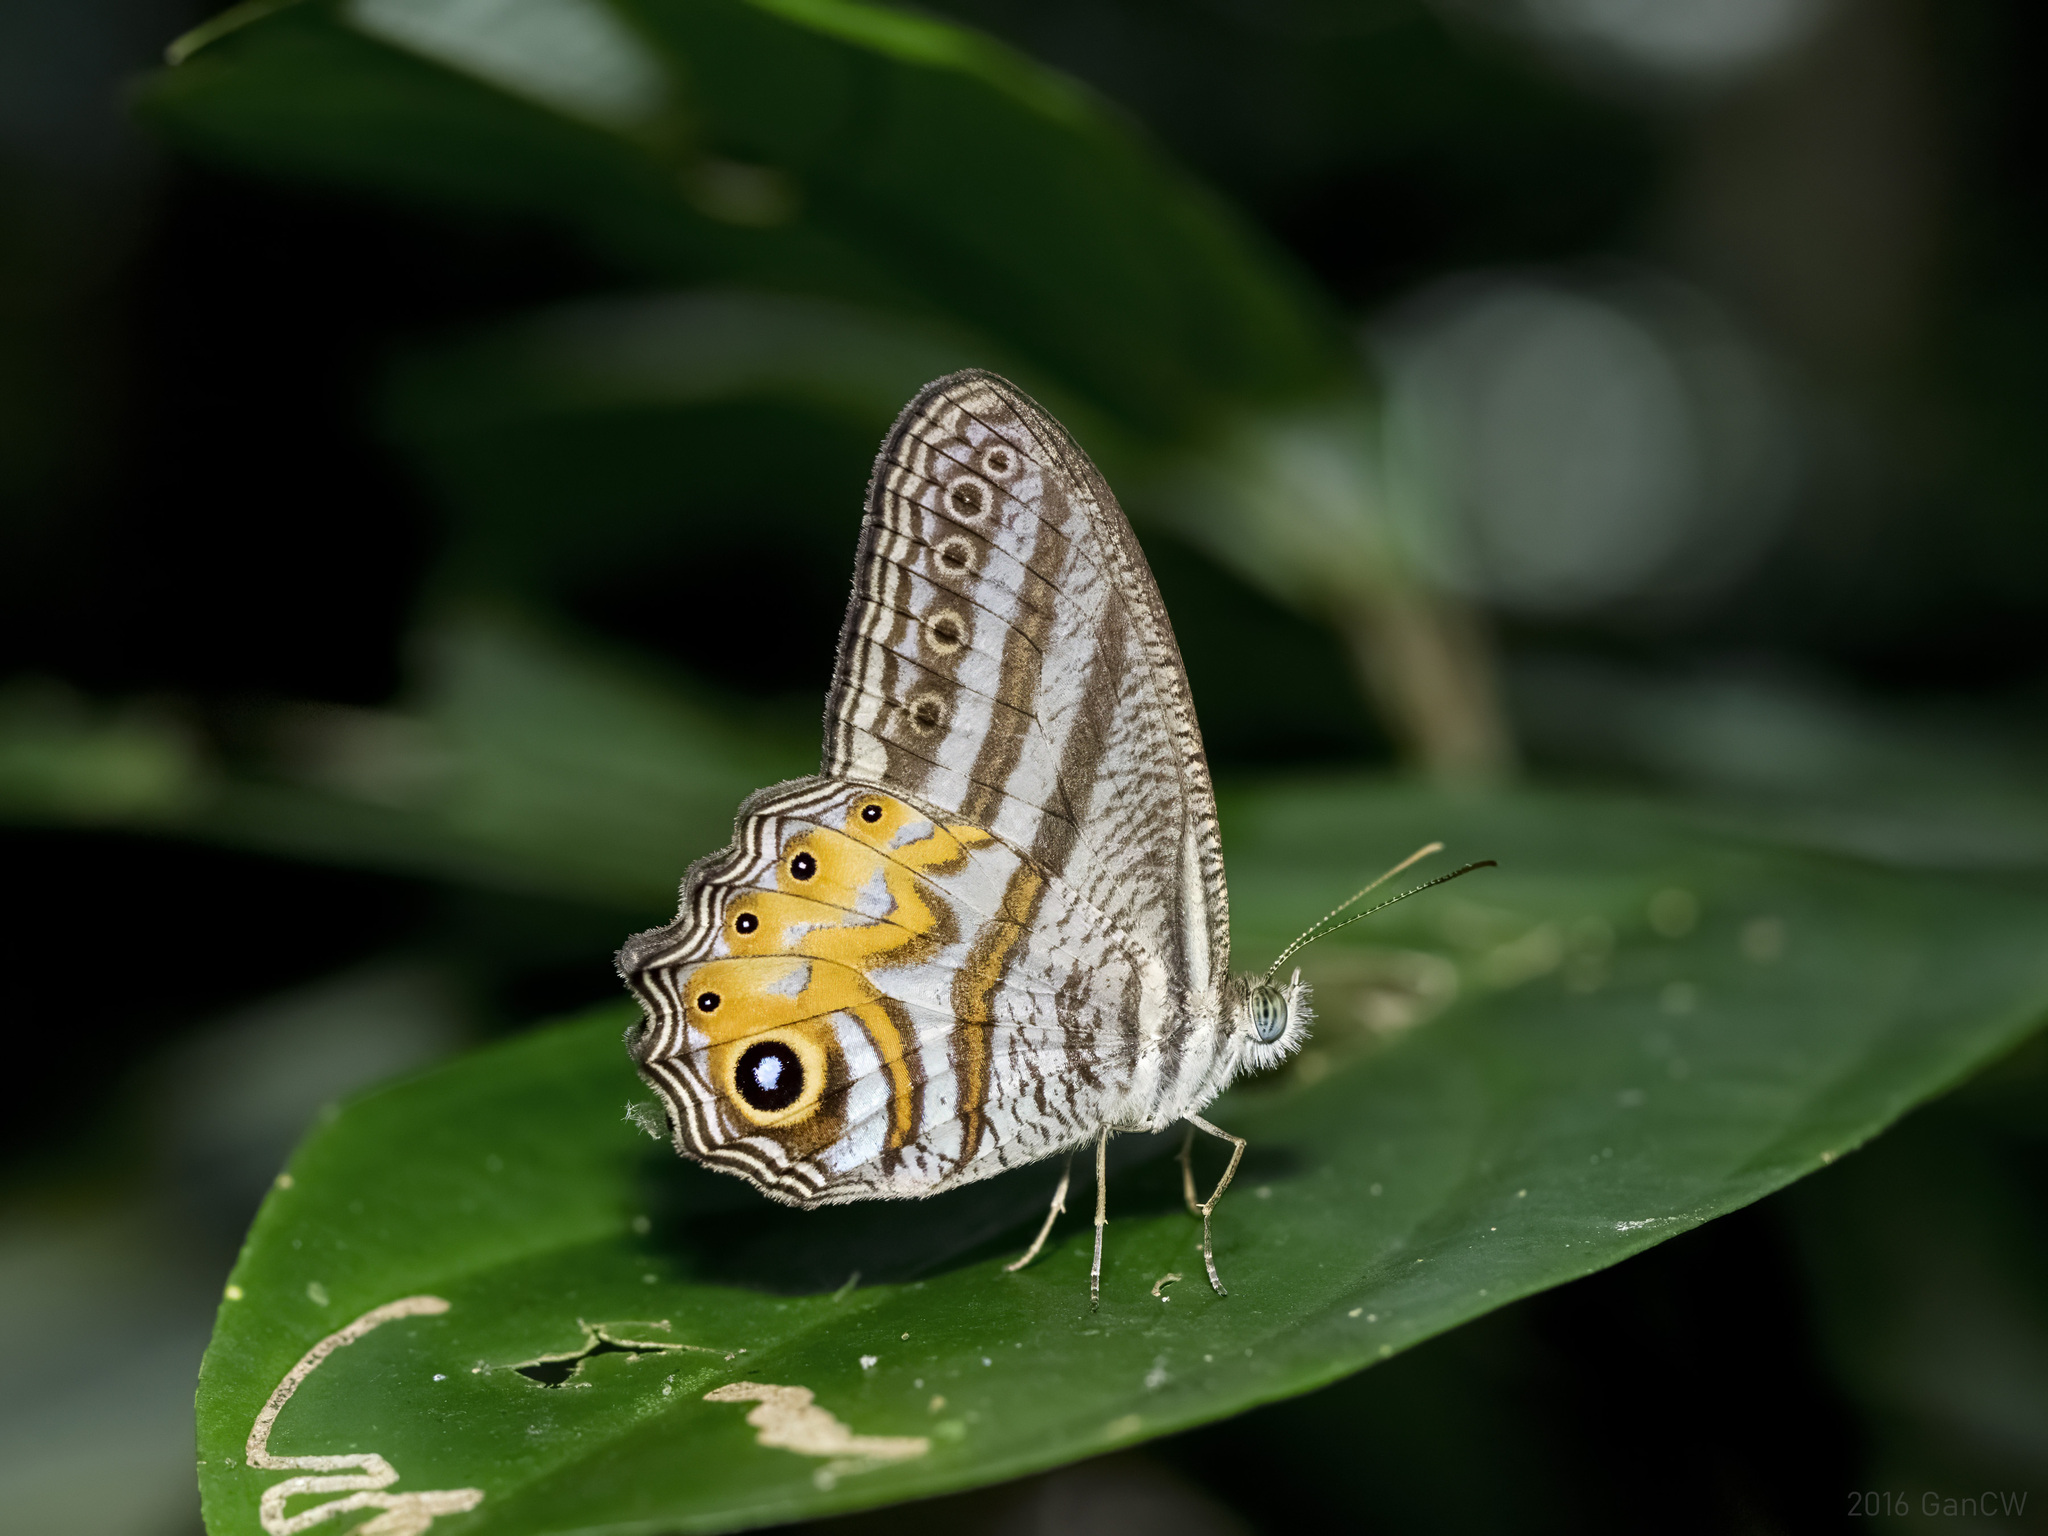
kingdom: Animalia
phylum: Arthropoda
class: Insecta
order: Lepidoptera
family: Nymphalidae
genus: Erites
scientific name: Erites elegans
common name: Elegent cyclops
